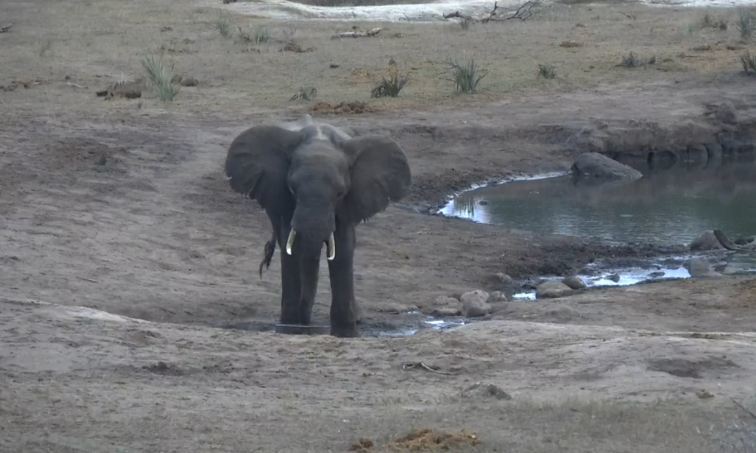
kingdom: Animalia
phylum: Chordata
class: Mammalia
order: Proboscidea
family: Elephantidae
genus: Loxodonta
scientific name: Loxodonta africana
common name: African elephant
